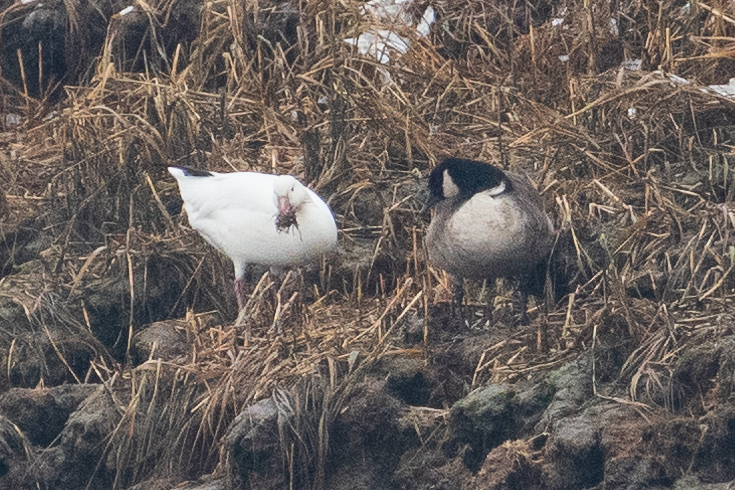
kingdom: Animalia
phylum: Chordata
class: Aves
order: Anseriformes
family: Anatidae
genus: Anser
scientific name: Anser caerulescens
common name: Snow goose
